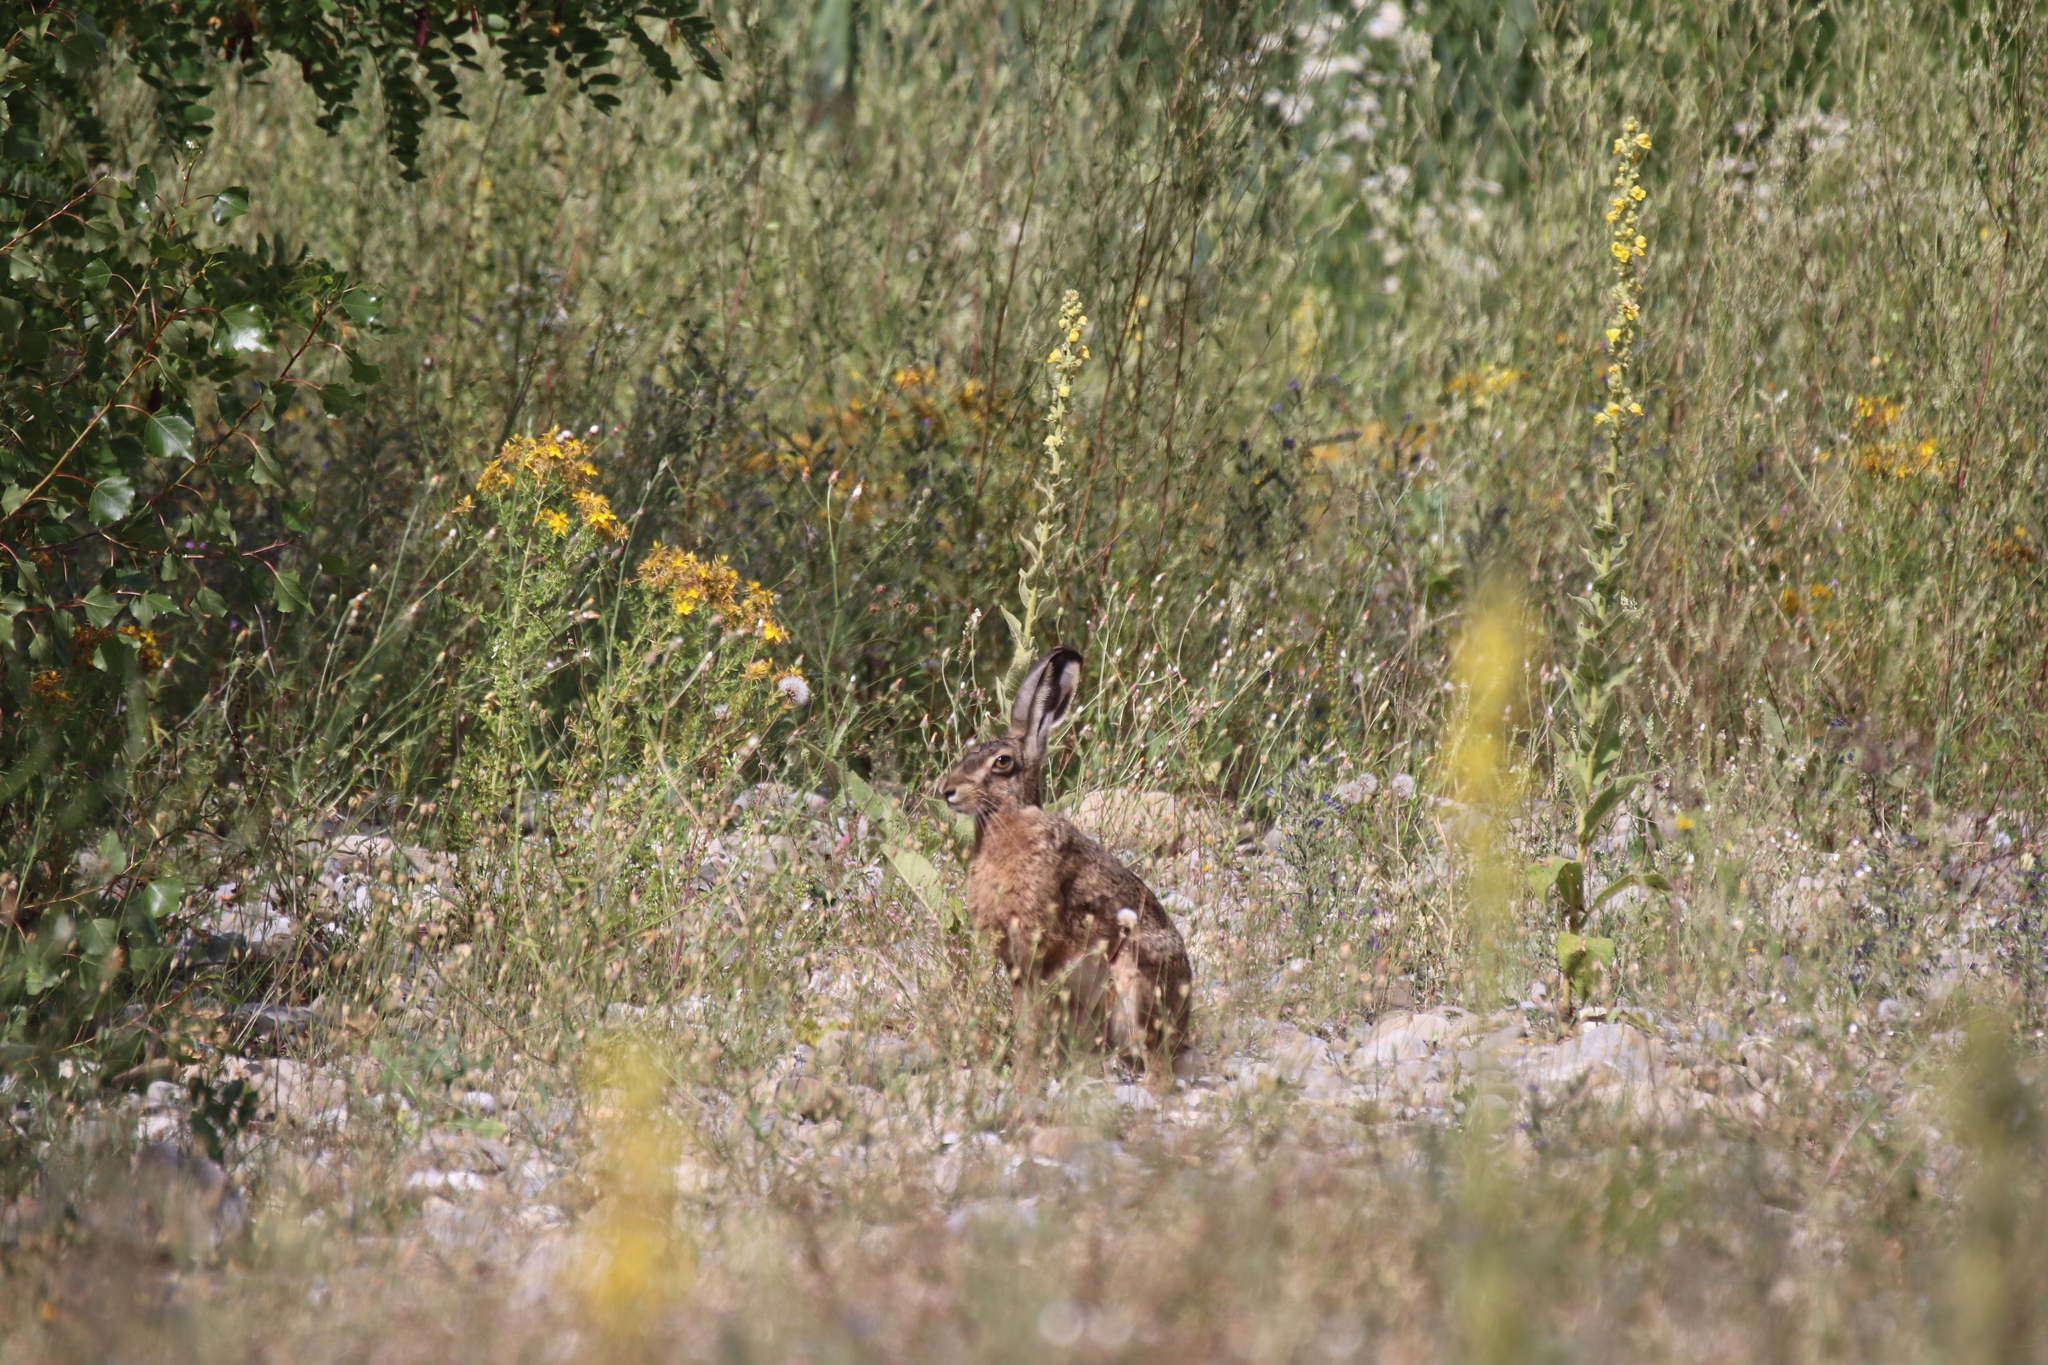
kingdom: Animalia
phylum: Chordata
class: Mammalia
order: Lagomorpha
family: Leporidae
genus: Lepus
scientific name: Lepus europaeus
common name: European hare
